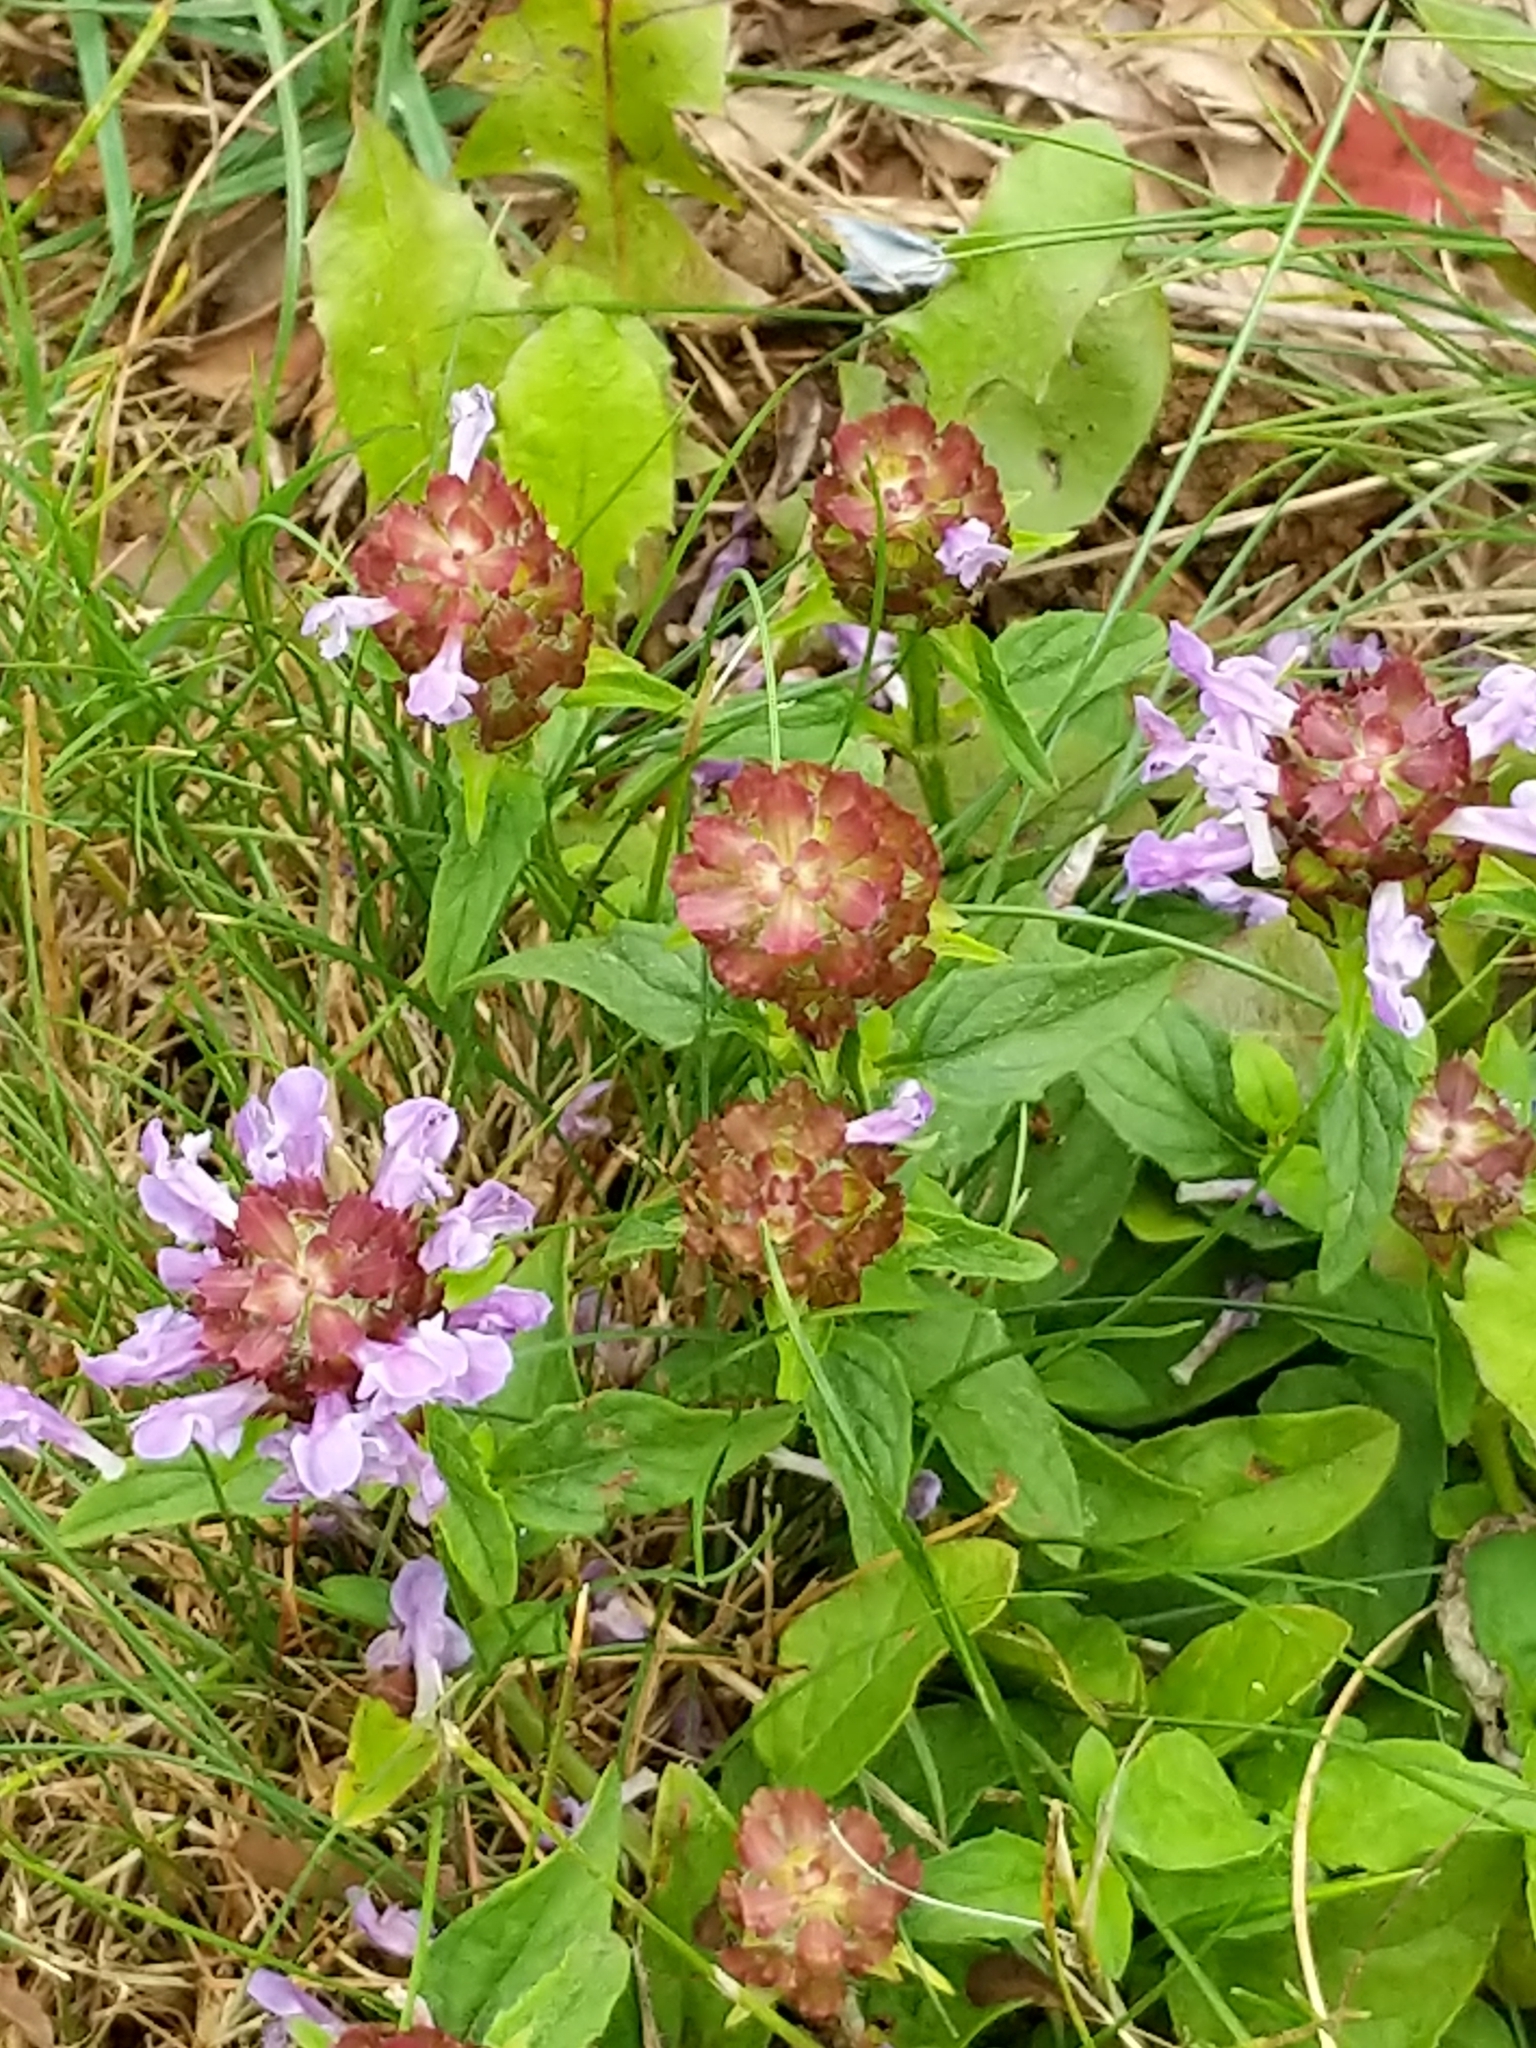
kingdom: Plantae
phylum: Tracheophyta
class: Magnoliopsida
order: Lamiales
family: Lamiaceae
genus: Prunella
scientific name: Prunella vulgaris
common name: Heal-all
